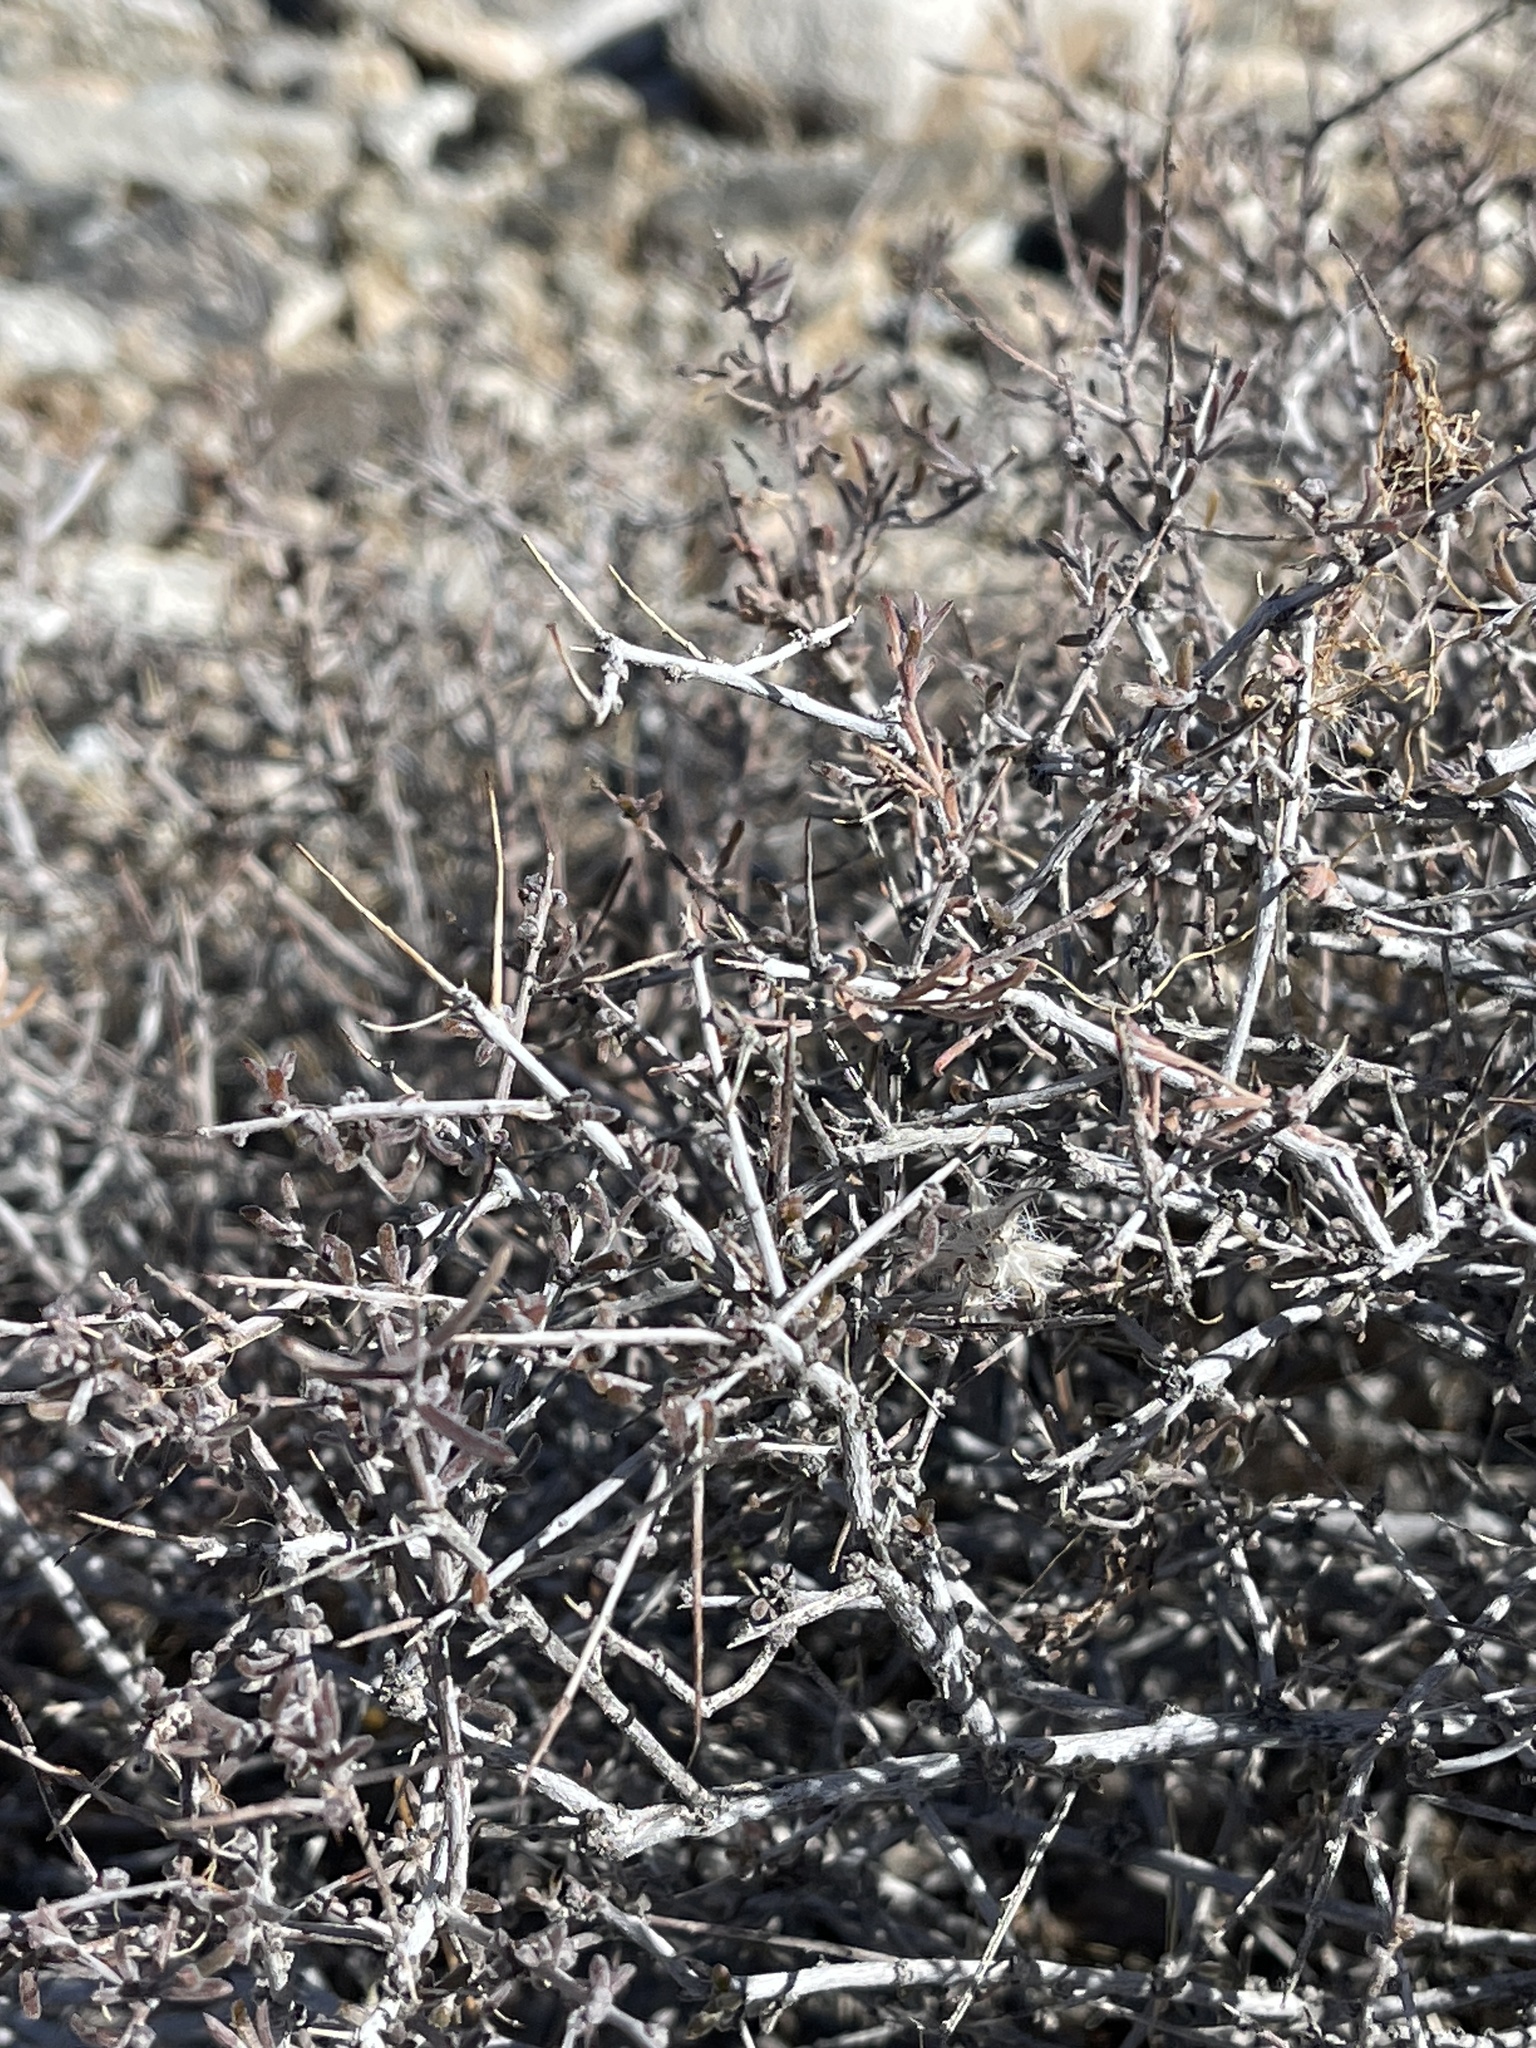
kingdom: Plantae
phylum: Tracheophyta
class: Magnoliopsida
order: Zygophyllales
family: Krameriaceae
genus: Krameria
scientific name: Krameria erecta
